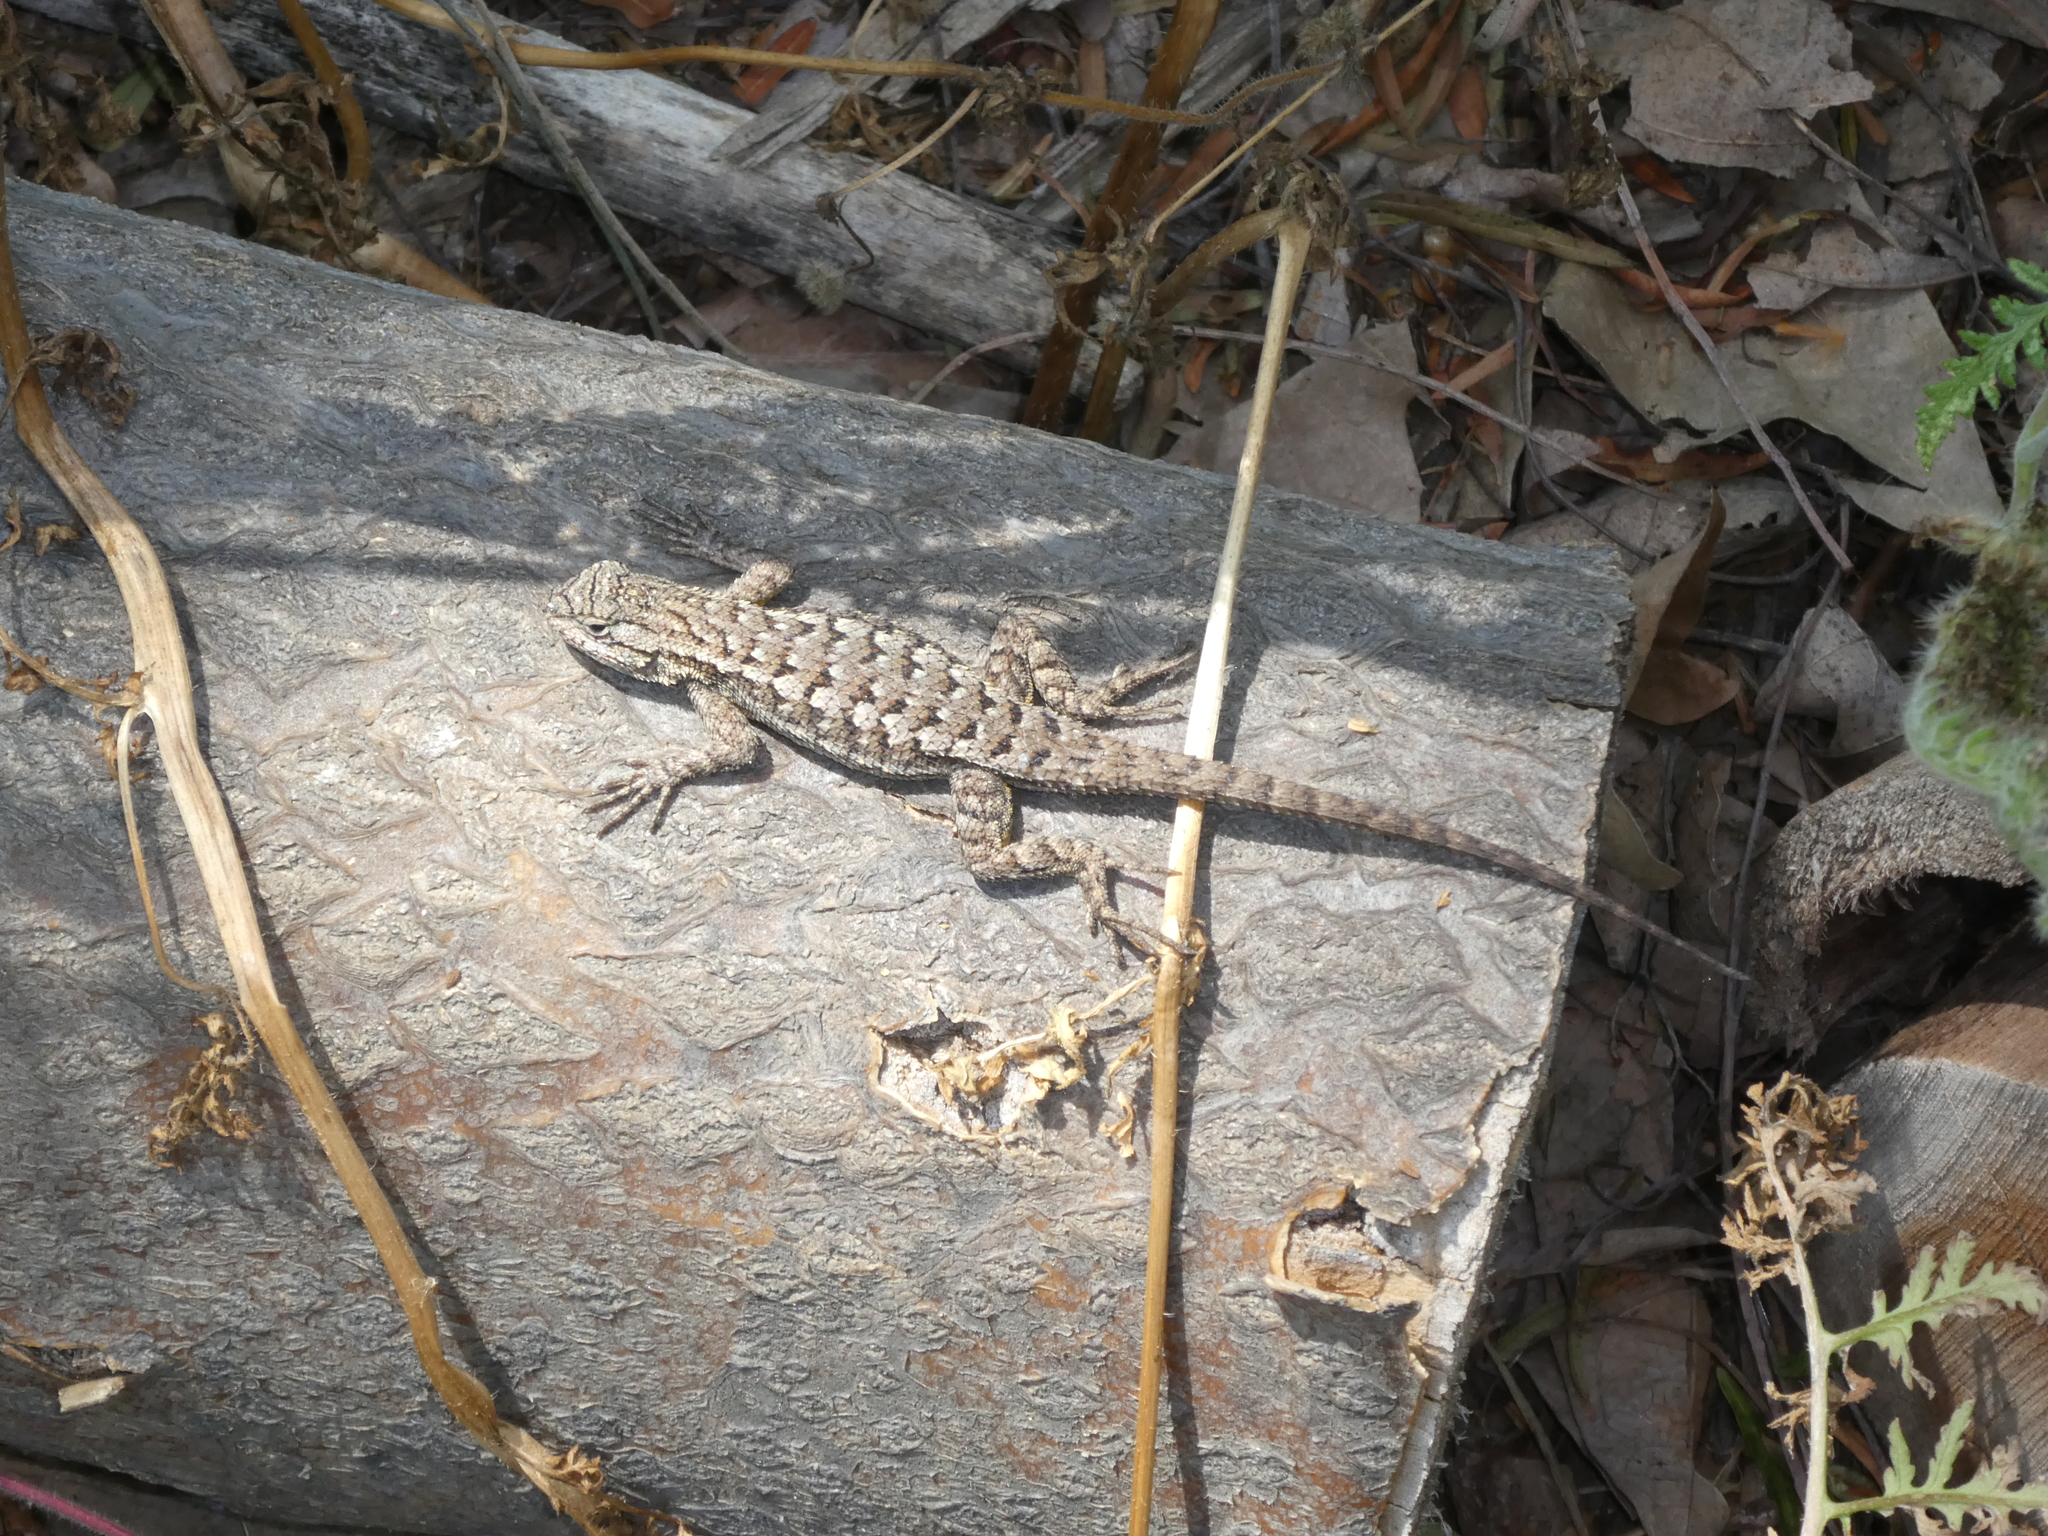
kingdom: Animalia
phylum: Chordata
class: Squamata
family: Phrynosomatidae
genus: Sceloporus
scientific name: Sceloporus occidentalis
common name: Western fence lizard
